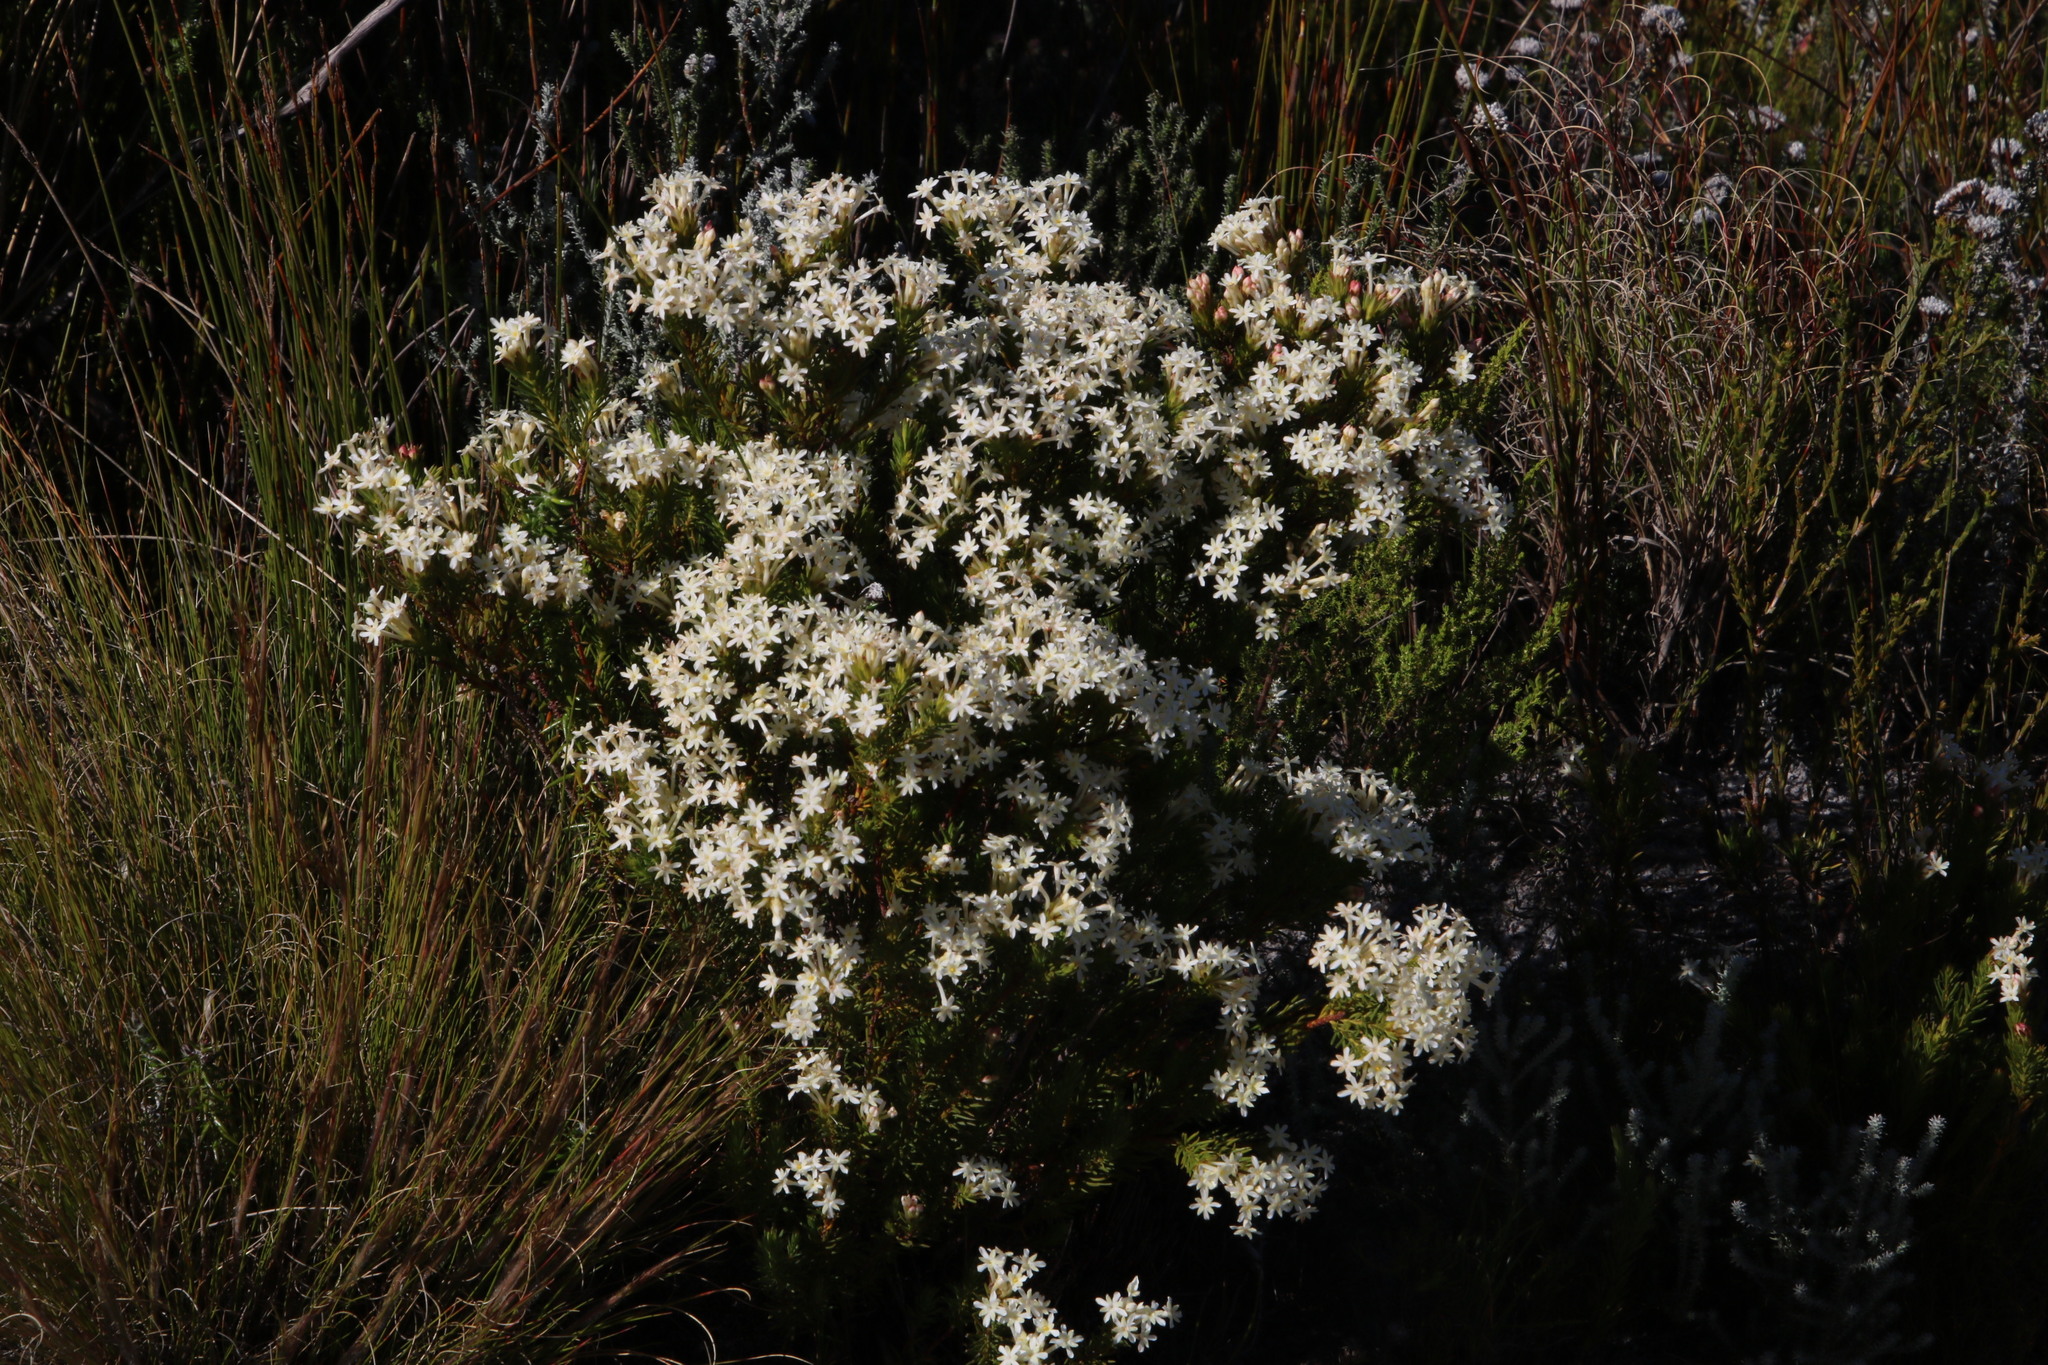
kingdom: Plantae
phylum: Tracheophyta
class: Magnoliopsida
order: Malvales
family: Thymelaeaceae
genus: Gnidia
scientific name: Gnidia pinifolia
